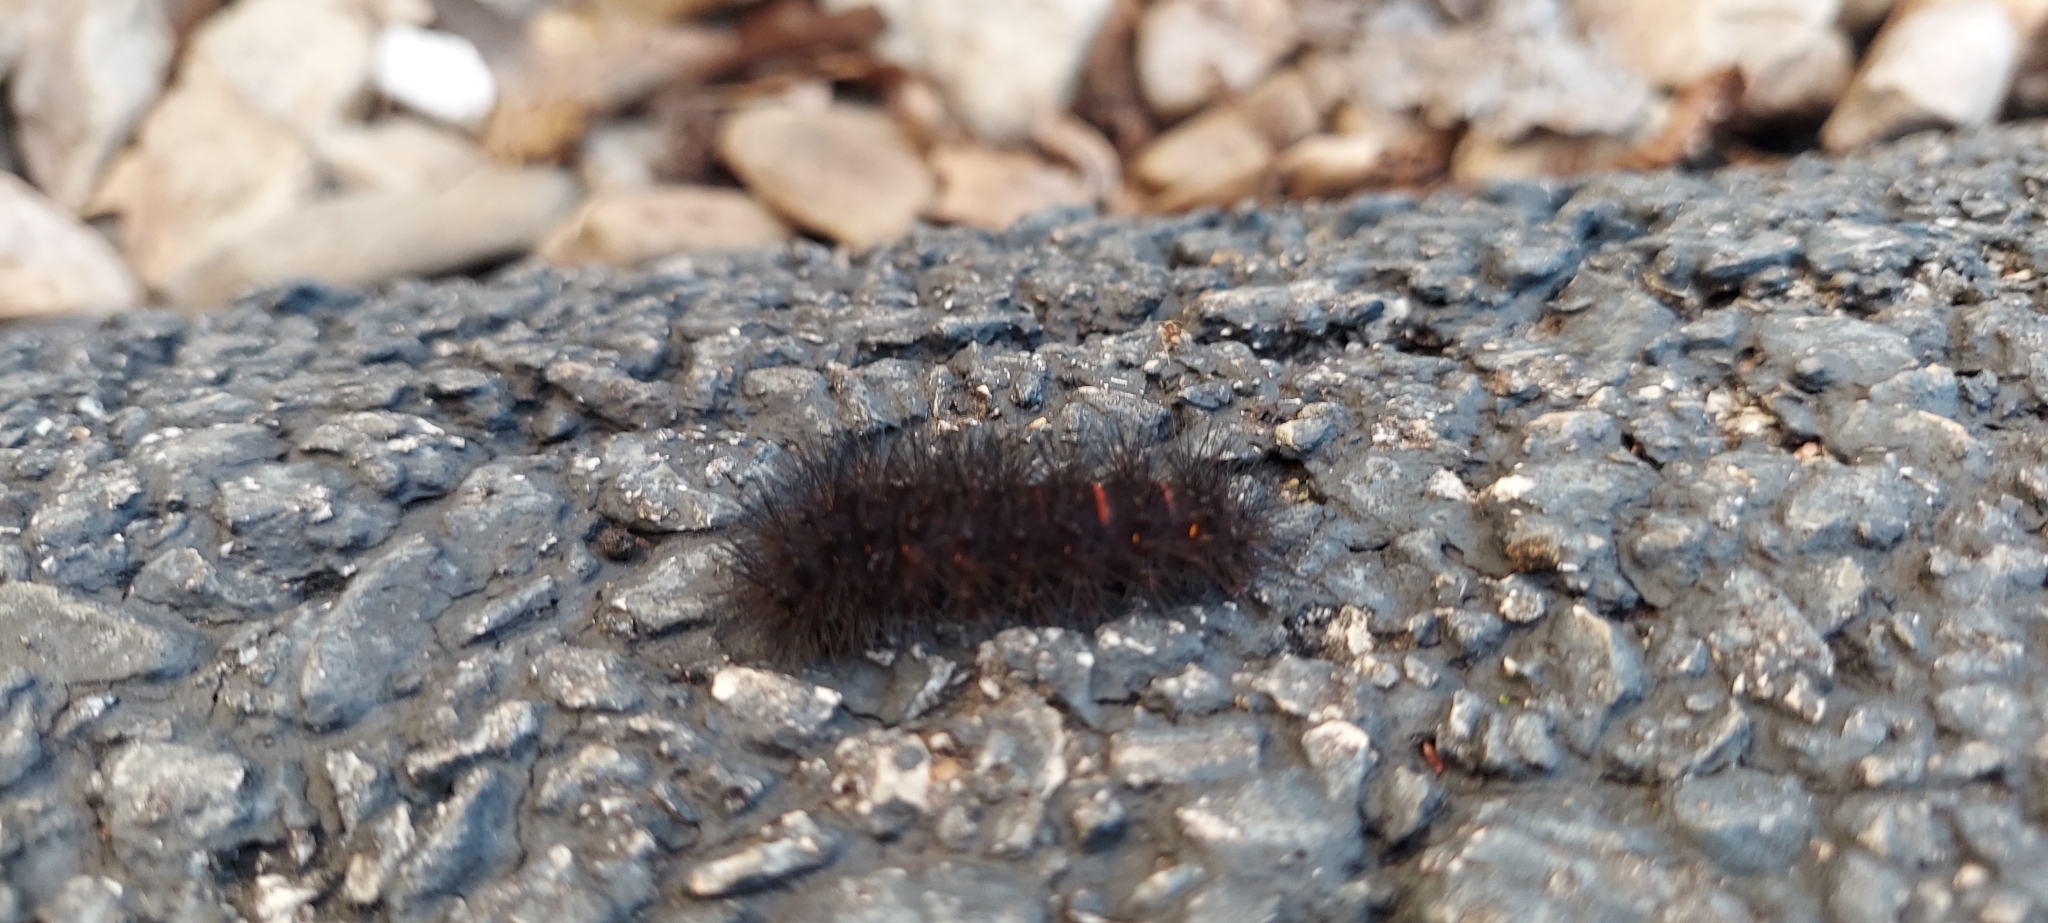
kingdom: Animalia
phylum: Arthropoda
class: Insecta
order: Lepidoptera
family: Erebidae
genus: Hypercompe
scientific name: Hypercompe scribonia
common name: Giant leopard moth
